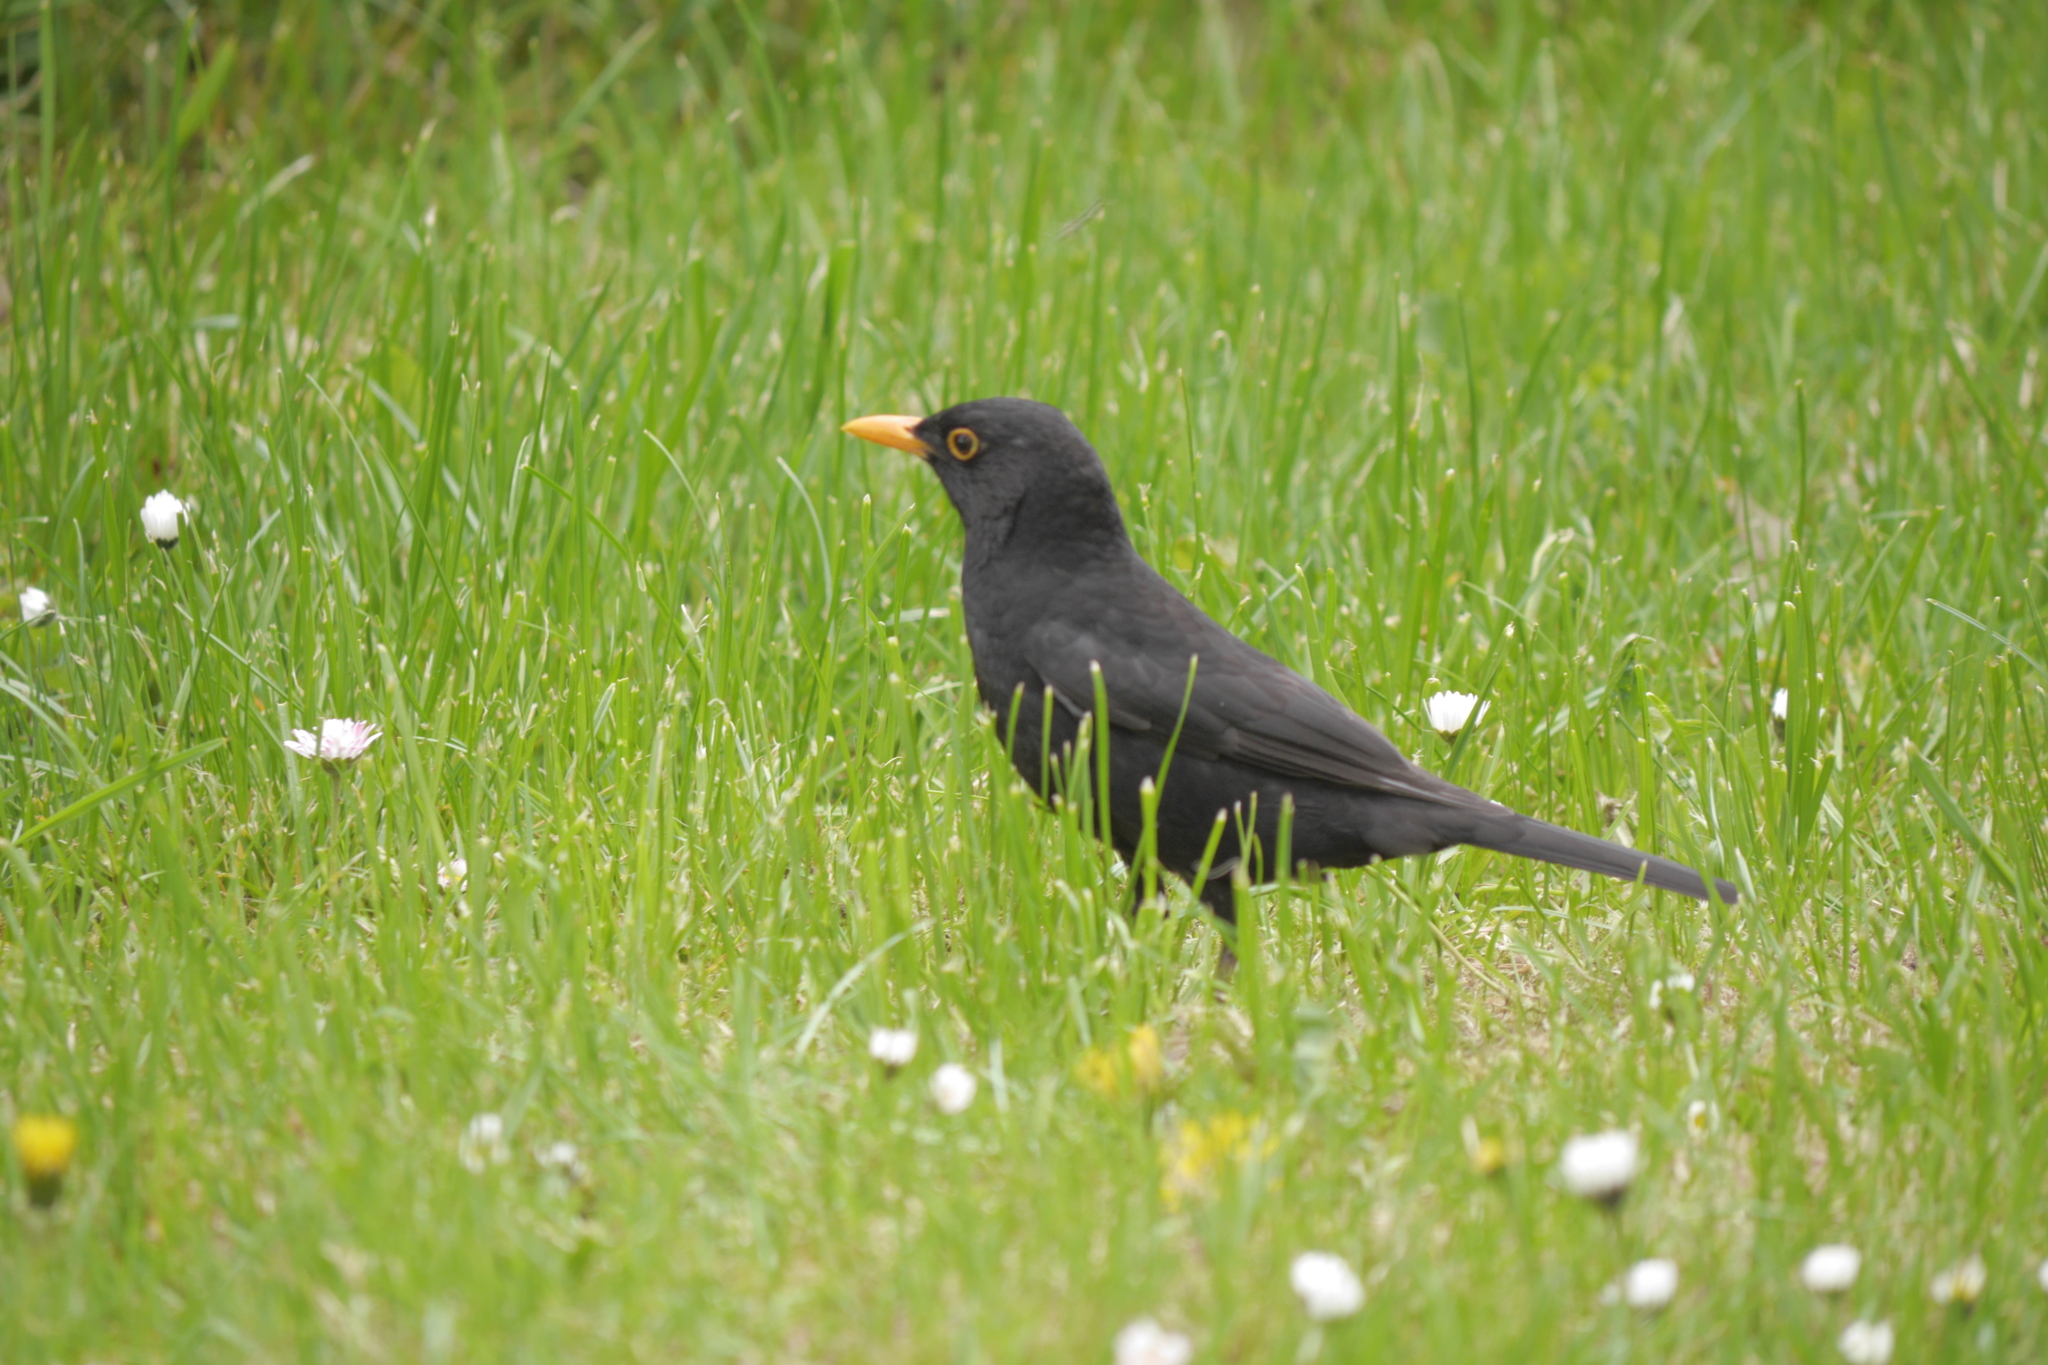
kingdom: Animalia
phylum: Chordata
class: Aves
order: Passeriformes
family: Turdidae
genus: Turdus
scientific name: Turdus merula
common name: Common blackbird
